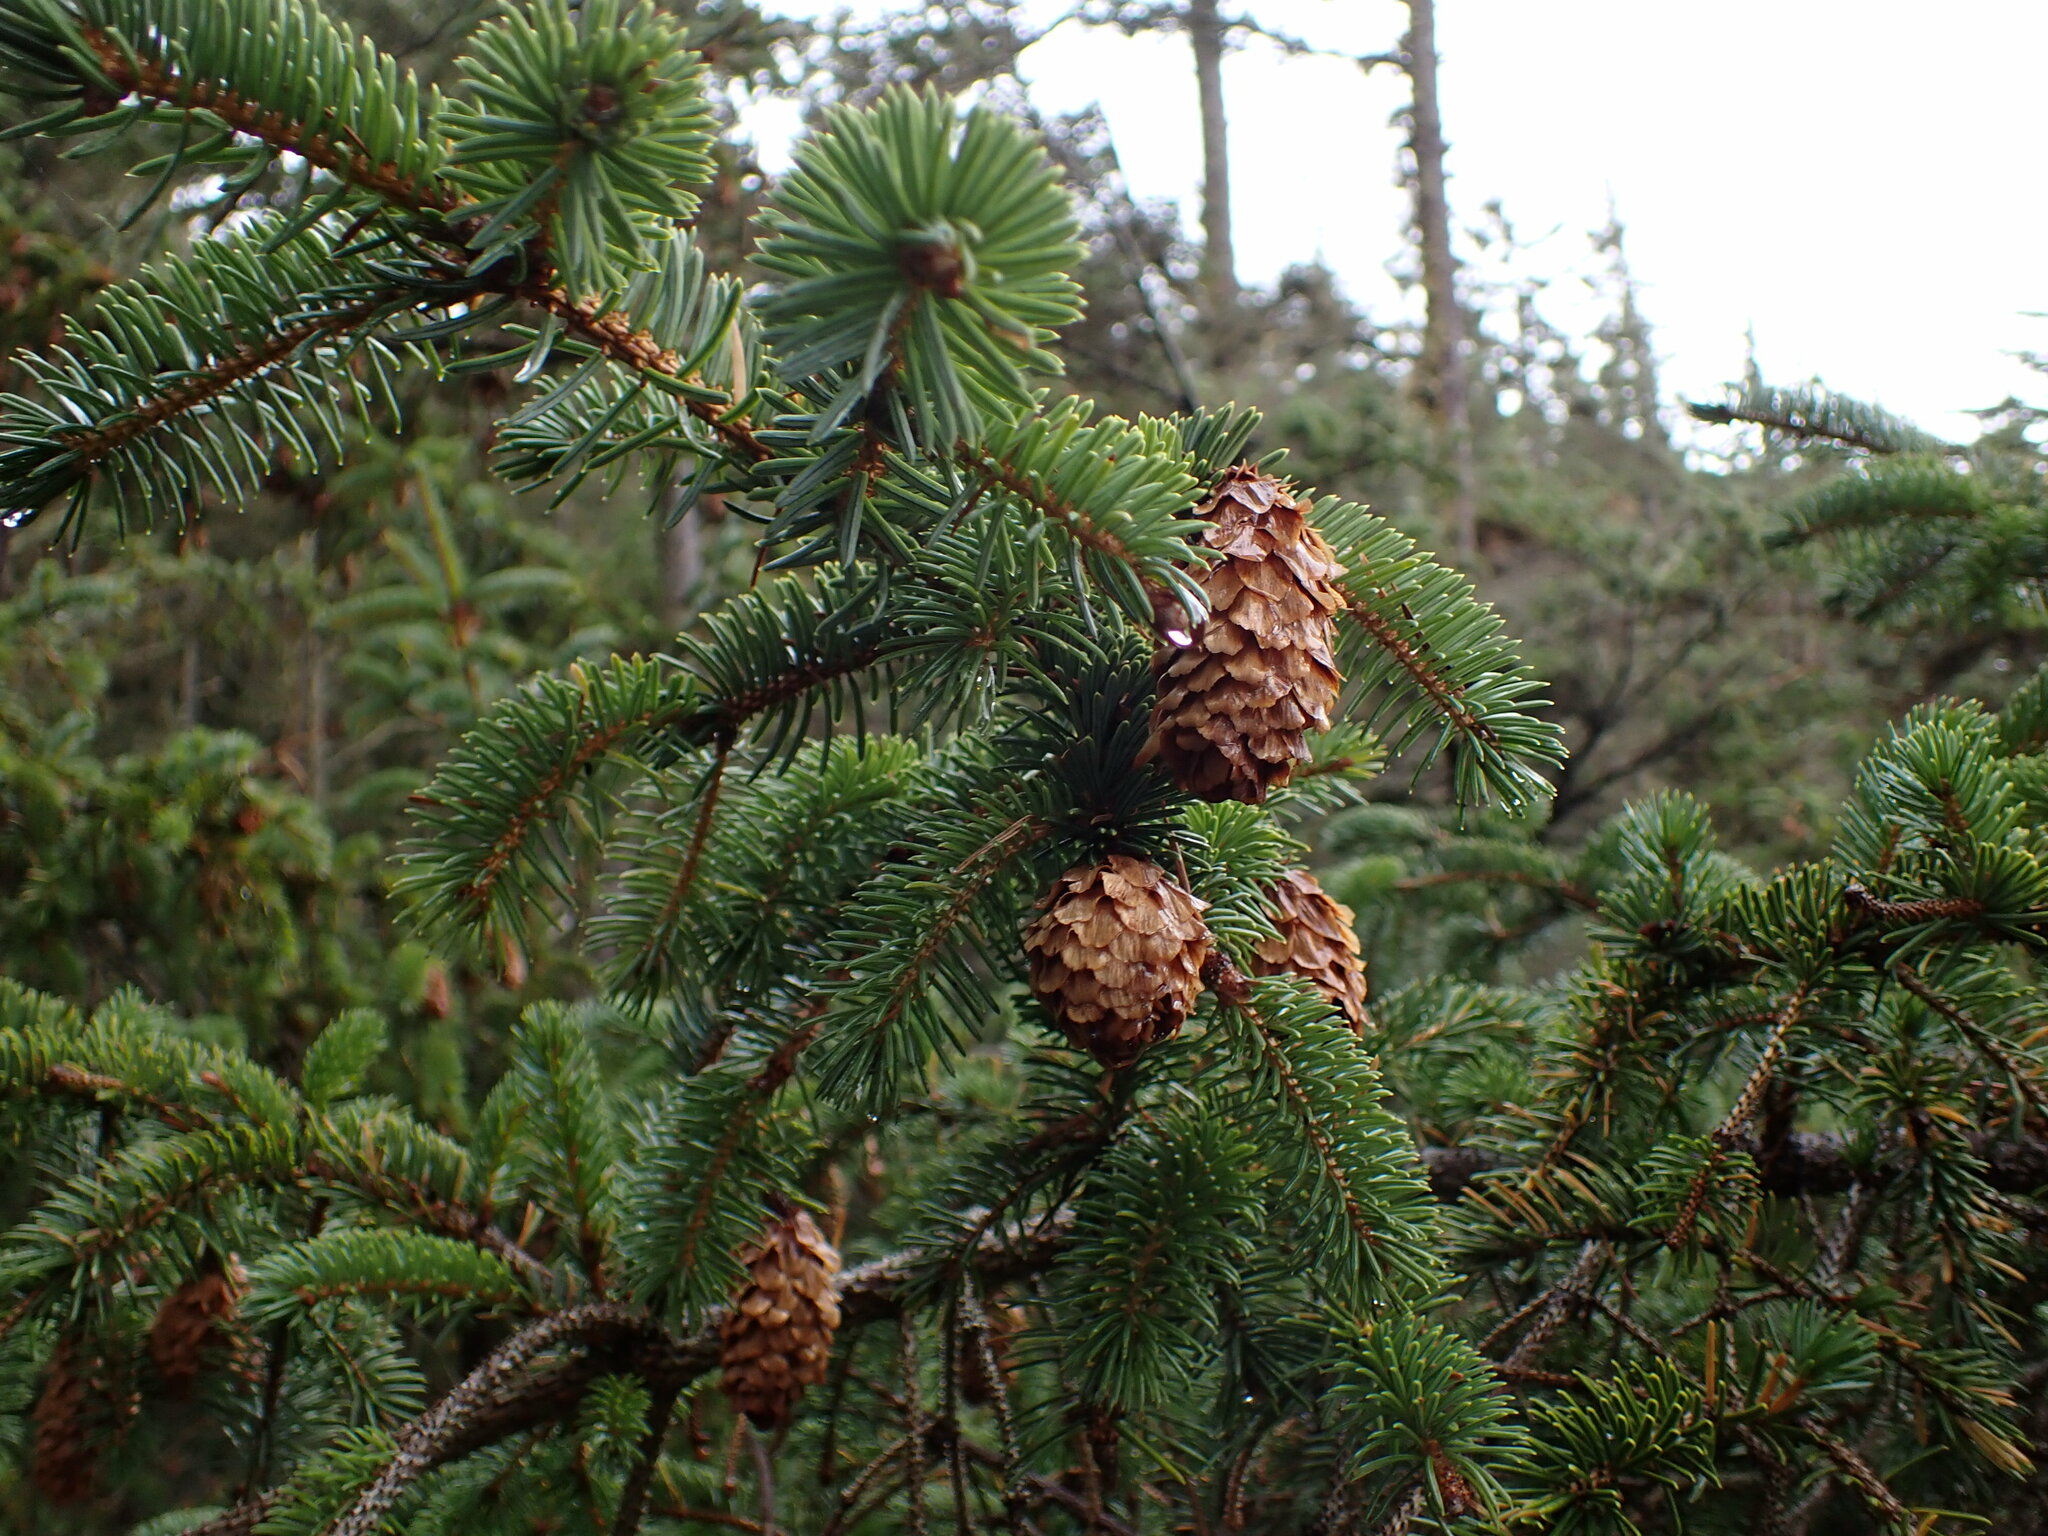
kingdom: Plantae
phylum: Tracheophyta
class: Pinopsida
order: Pinales
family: Pinaceae
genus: Picea
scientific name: Picea sitchensis
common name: Sitka spruce
